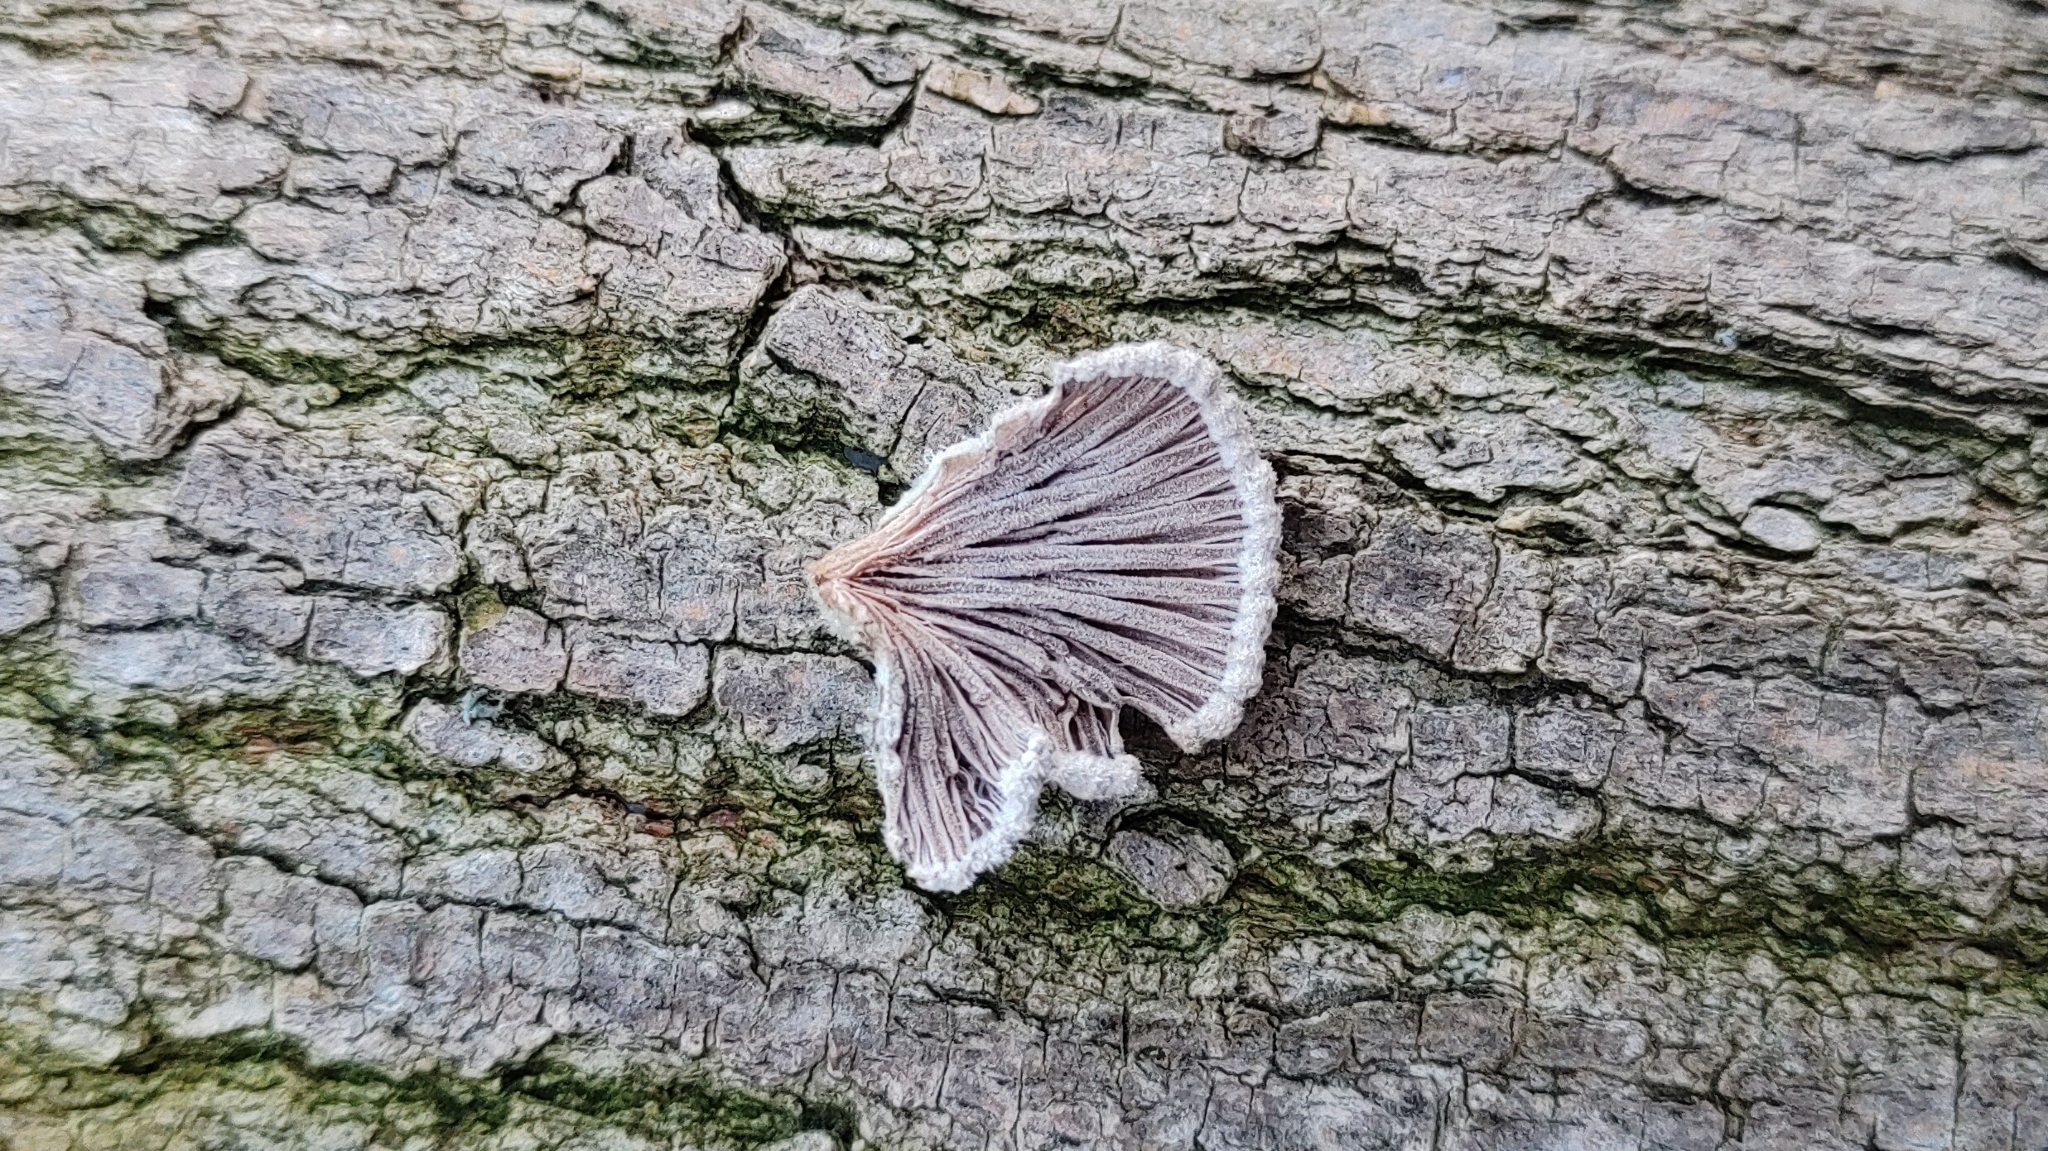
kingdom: Fungi
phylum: Basidiomycota
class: Agaricomycetes
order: Agaricales
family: Schizophyllaceae
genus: Schizophyllum
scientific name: Schizophyllum commune
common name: Common porecrust
